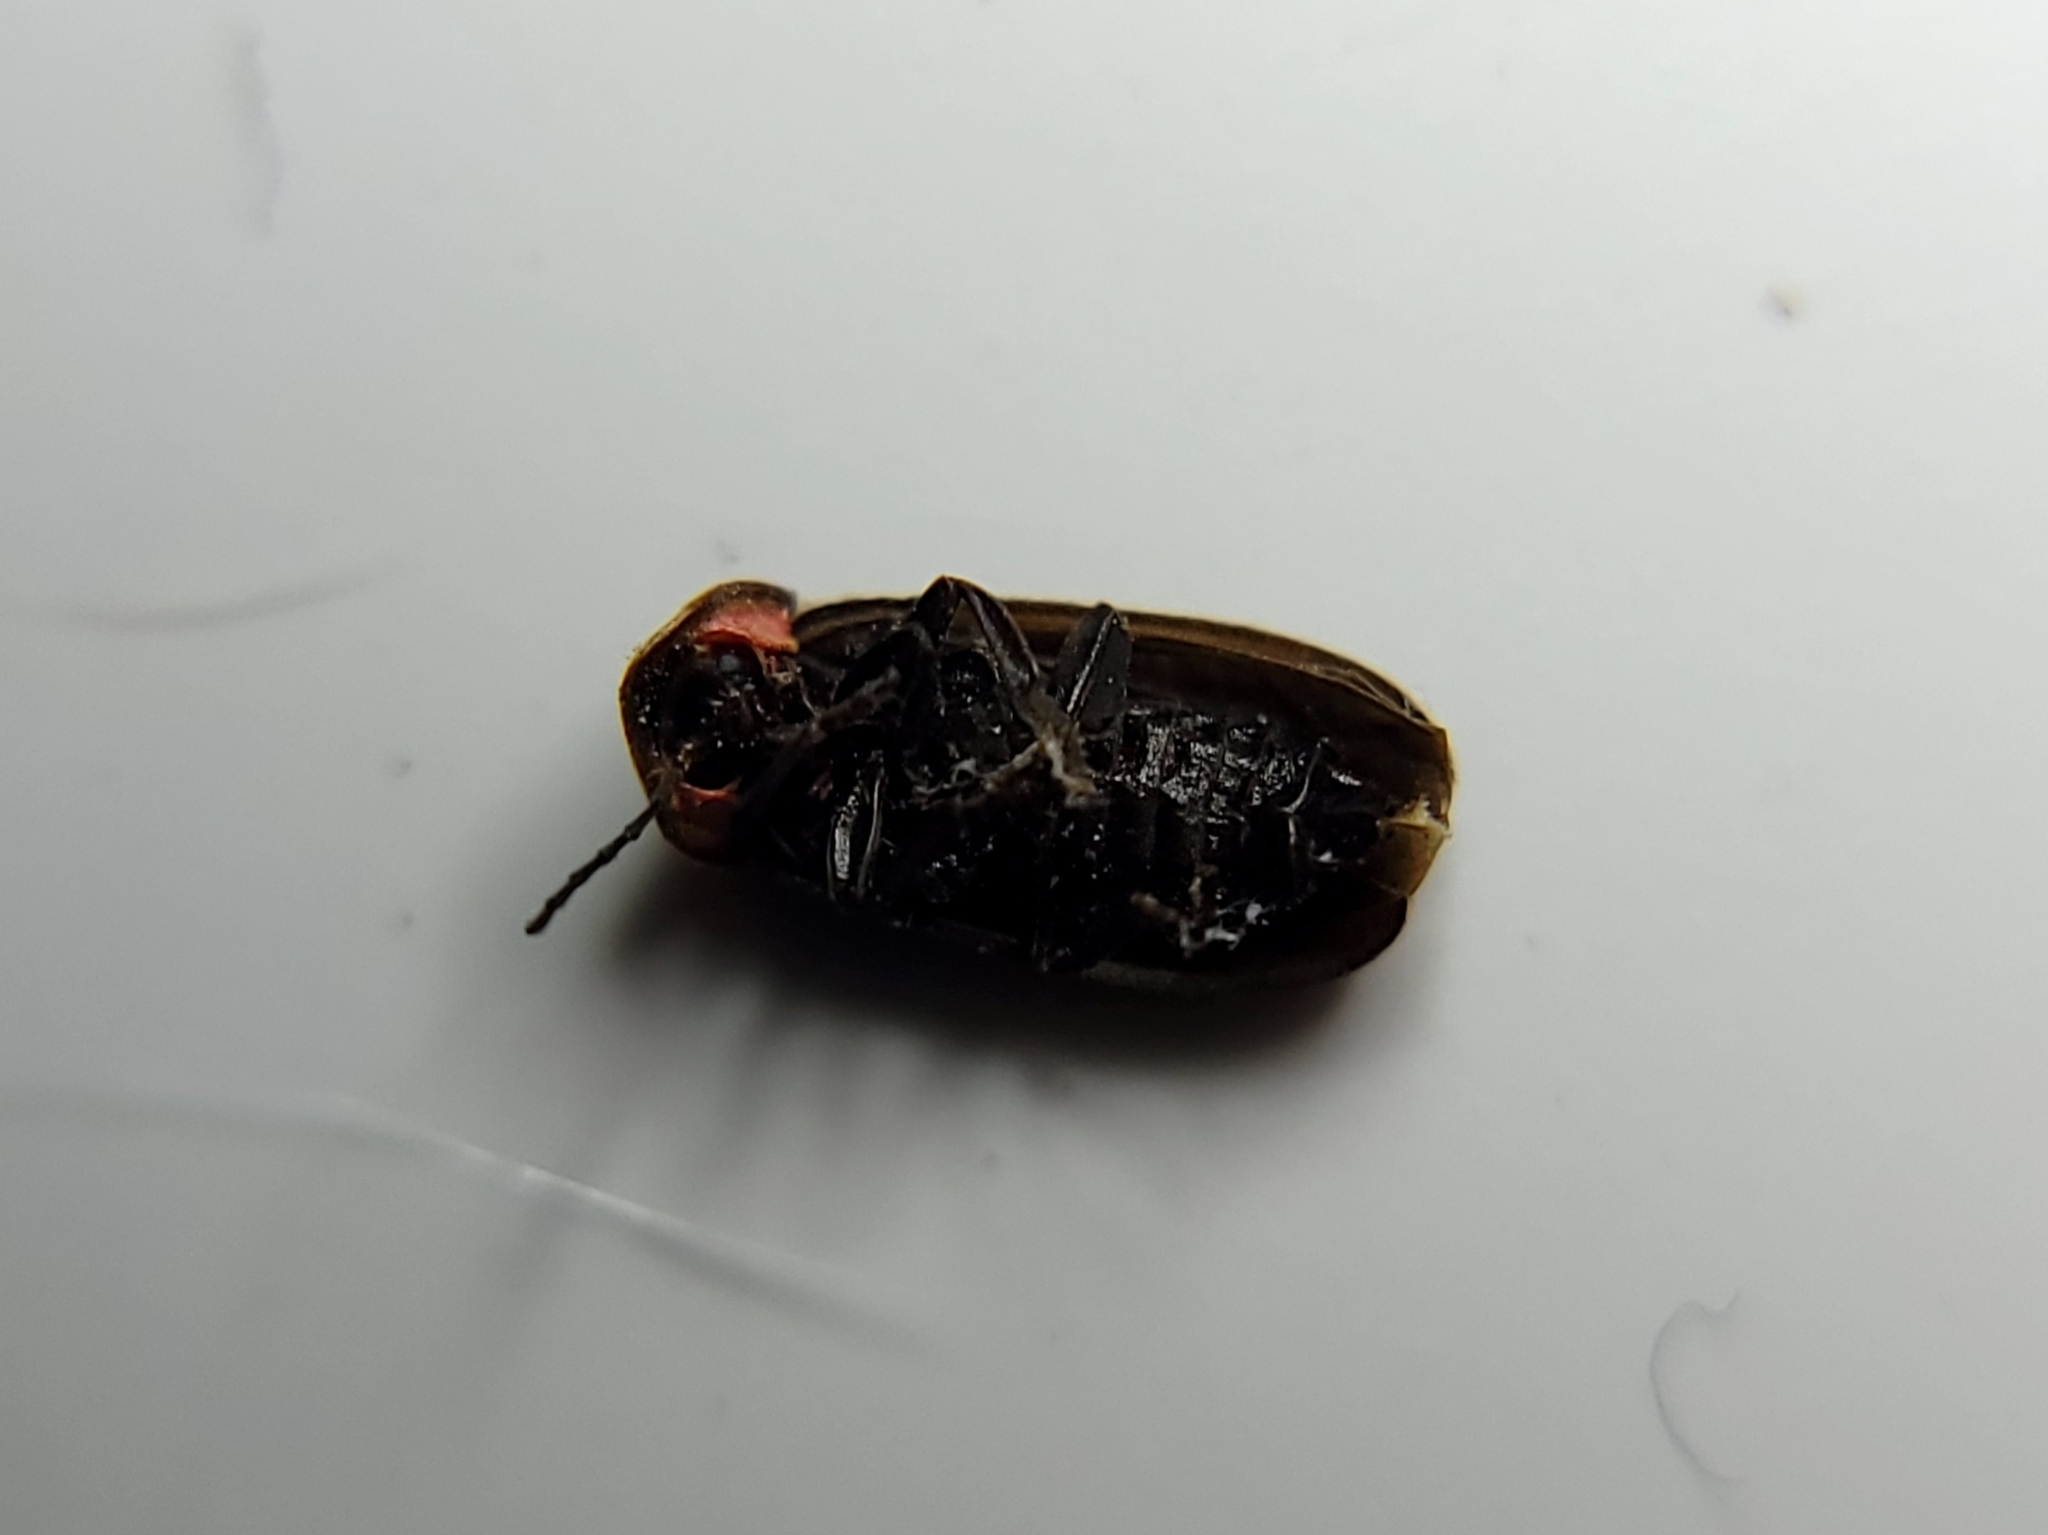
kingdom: Animalia
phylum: Arthropoda
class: Insecta
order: Coleoptera
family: Lampyridae
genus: Pyropyga
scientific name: Pyropyga nigricans
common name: Dark firefly
